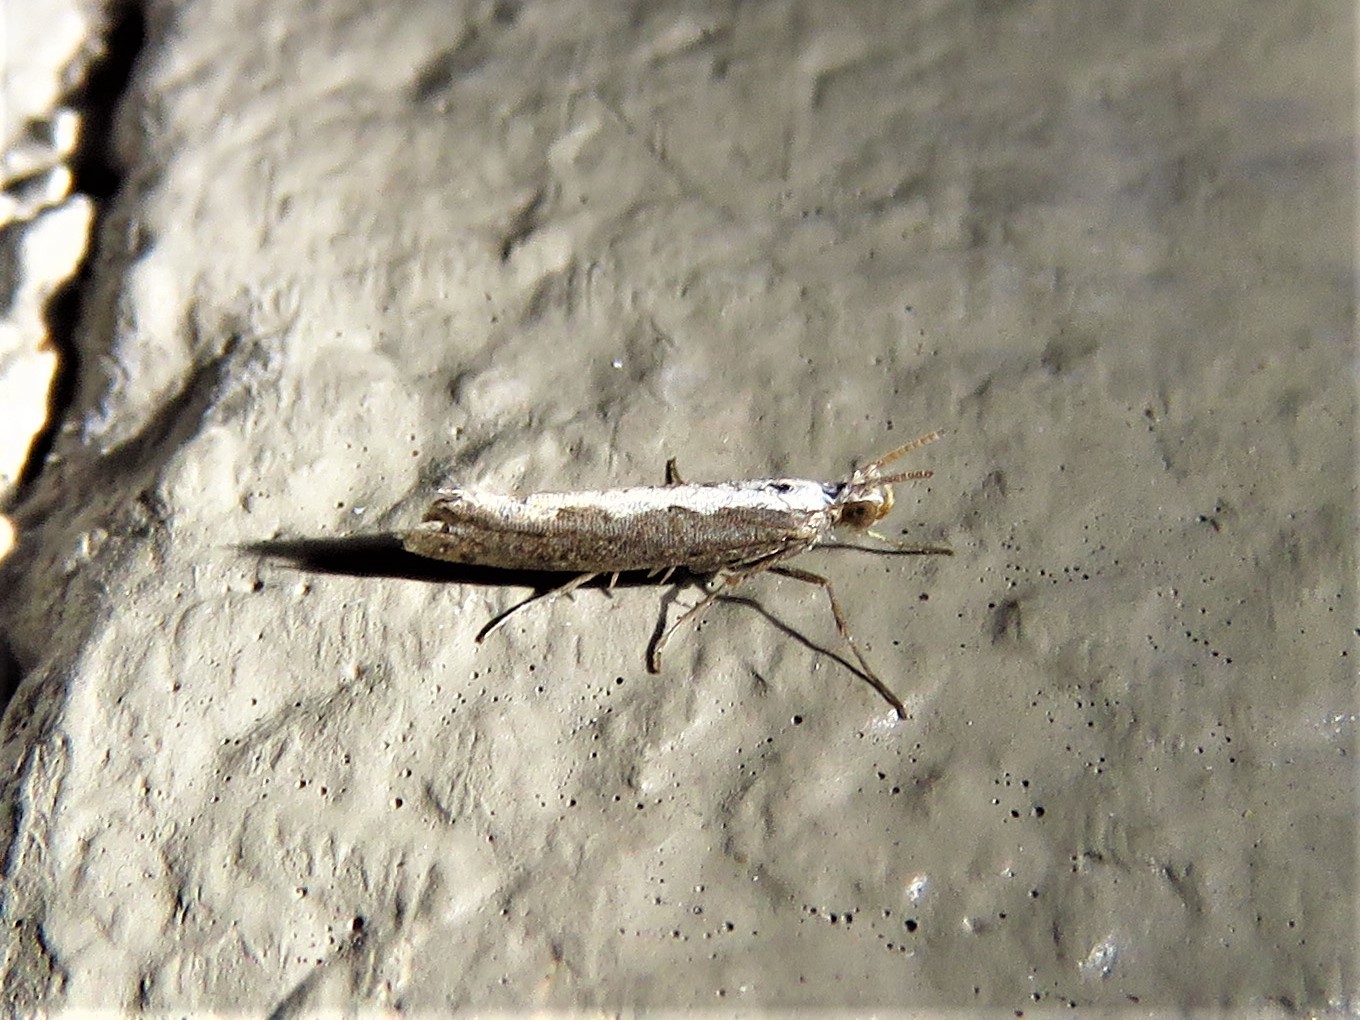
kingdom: Animalia
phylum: Arthropoda
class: Insecta
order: Lepidoptera
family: Plutellidae
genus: Plutella
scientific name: Plutella xylostella
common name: Diamond-back moth
